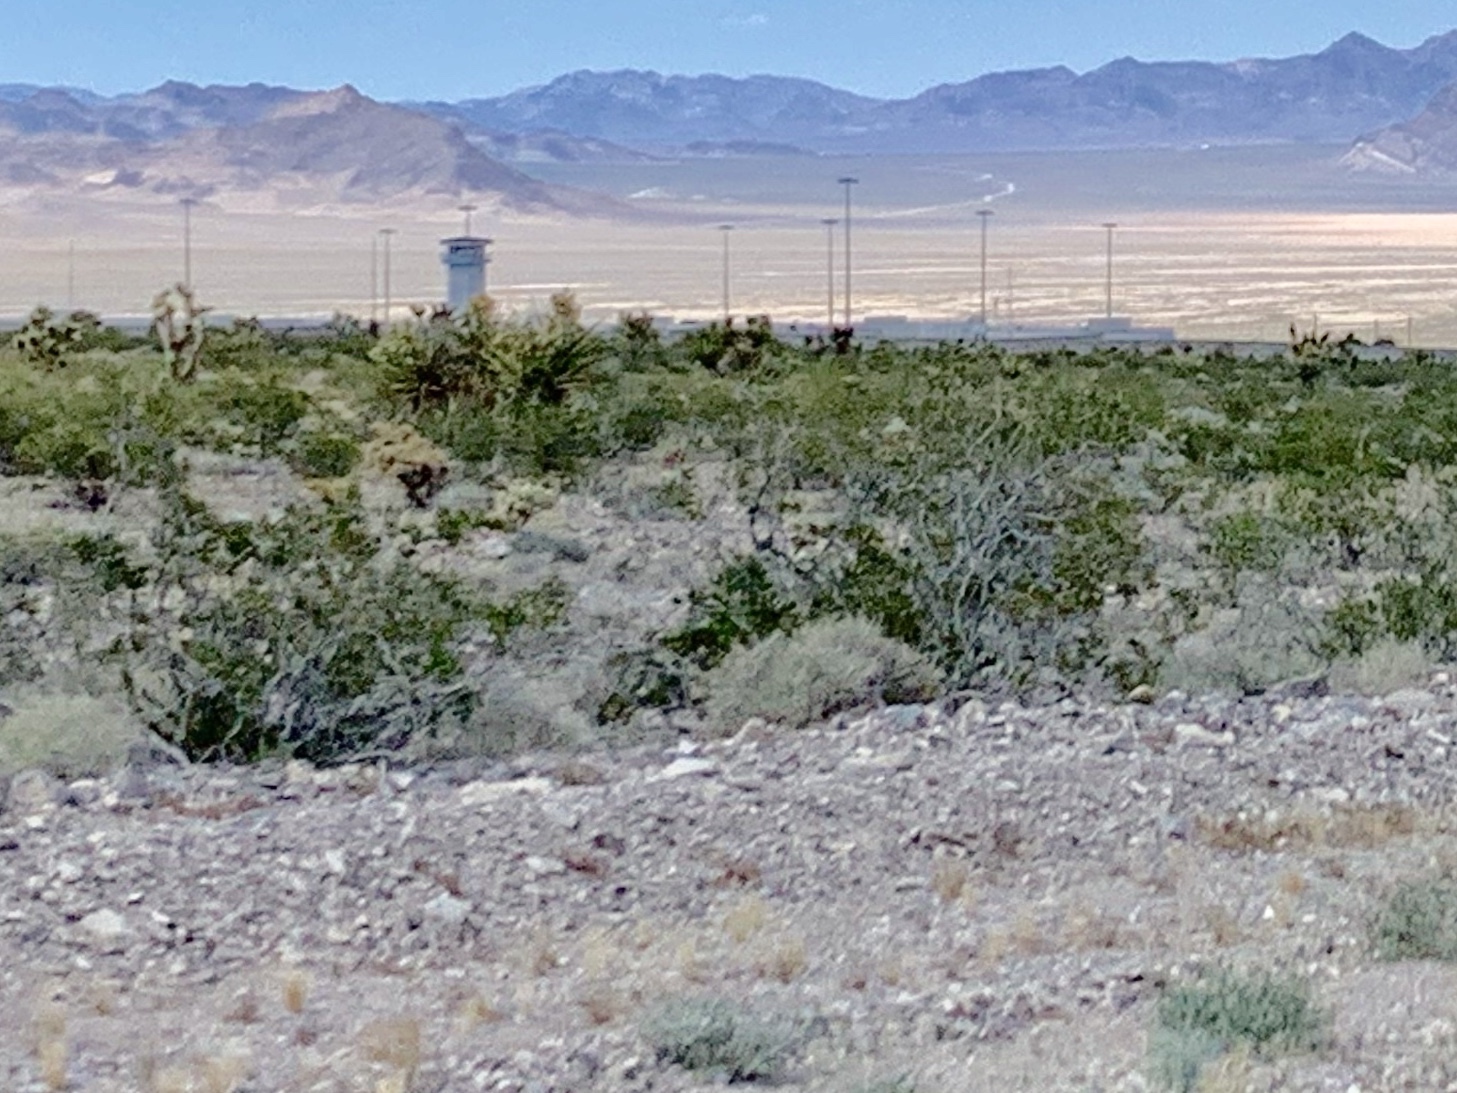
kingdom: Plantae
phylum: Tracheophyta
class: Magnoliopsida
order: Zygophyllales
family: Zygophyllaceae
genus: Larrea
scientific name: Larrea tridentata
